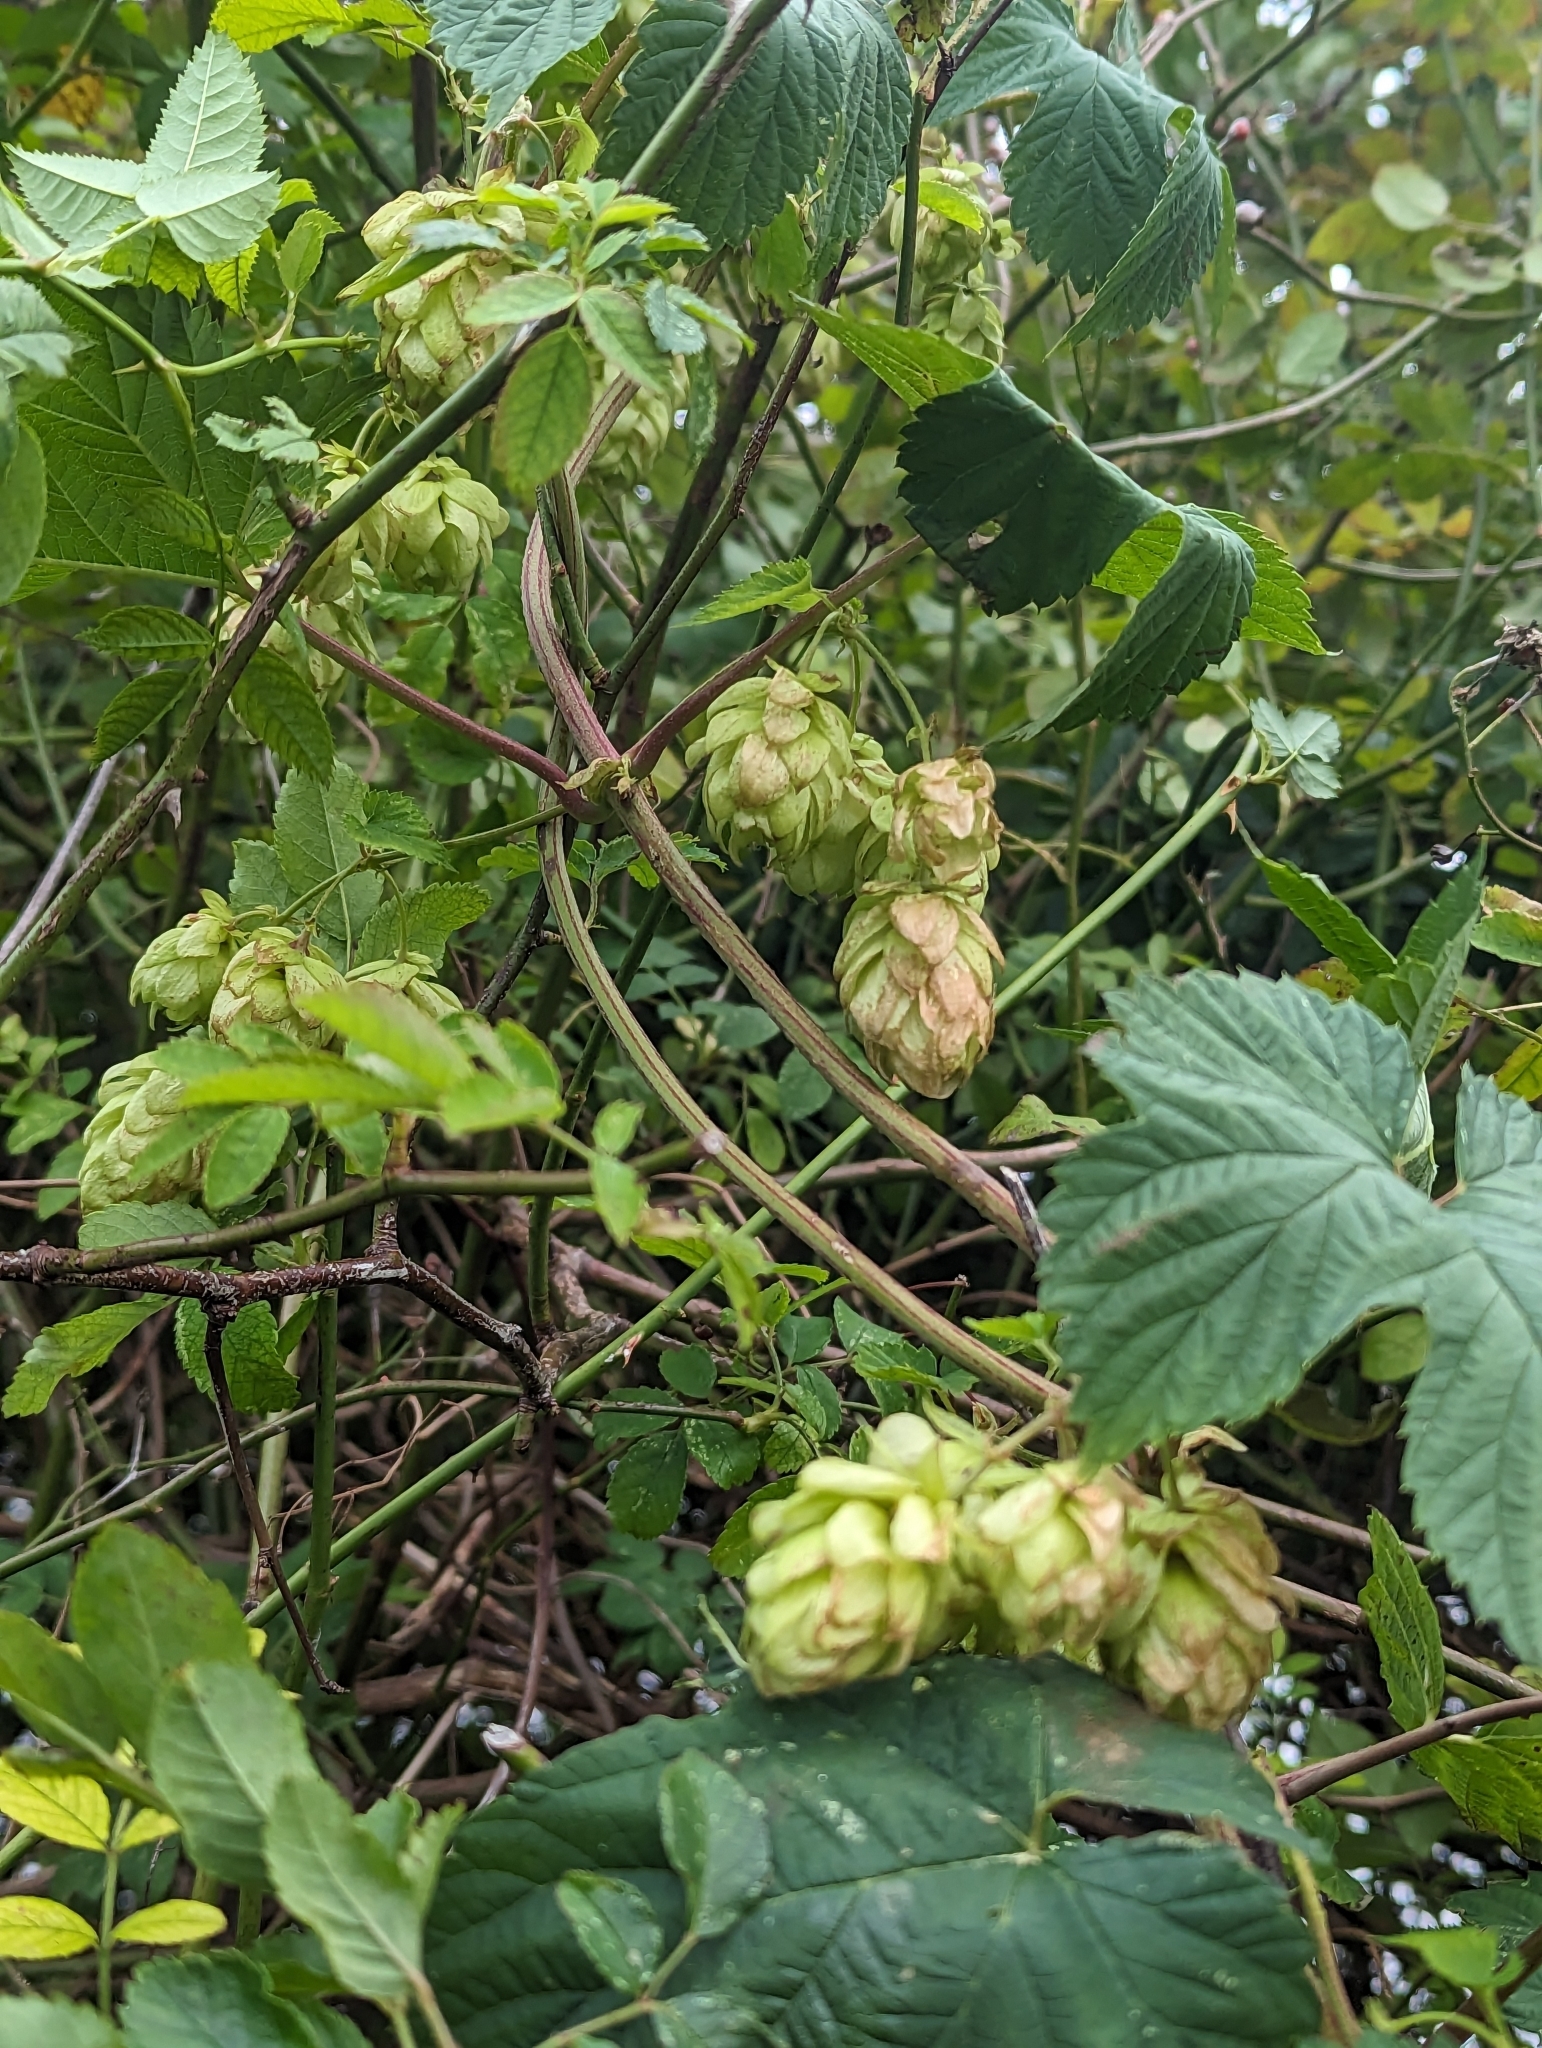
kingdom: Plantae
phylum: Tracheophyta
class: Magnoliopsida
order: Rosales
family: Cannabaceae
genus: Humulus
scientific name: Humulus lupulus
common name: Hop
